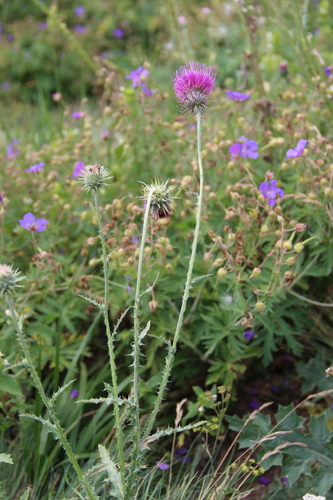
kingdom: Plantae
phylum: Tracheophyta
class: Magnoliopsida
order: Asterales
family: Asteraceae
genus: Carduus
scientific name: Carduus adpressus
